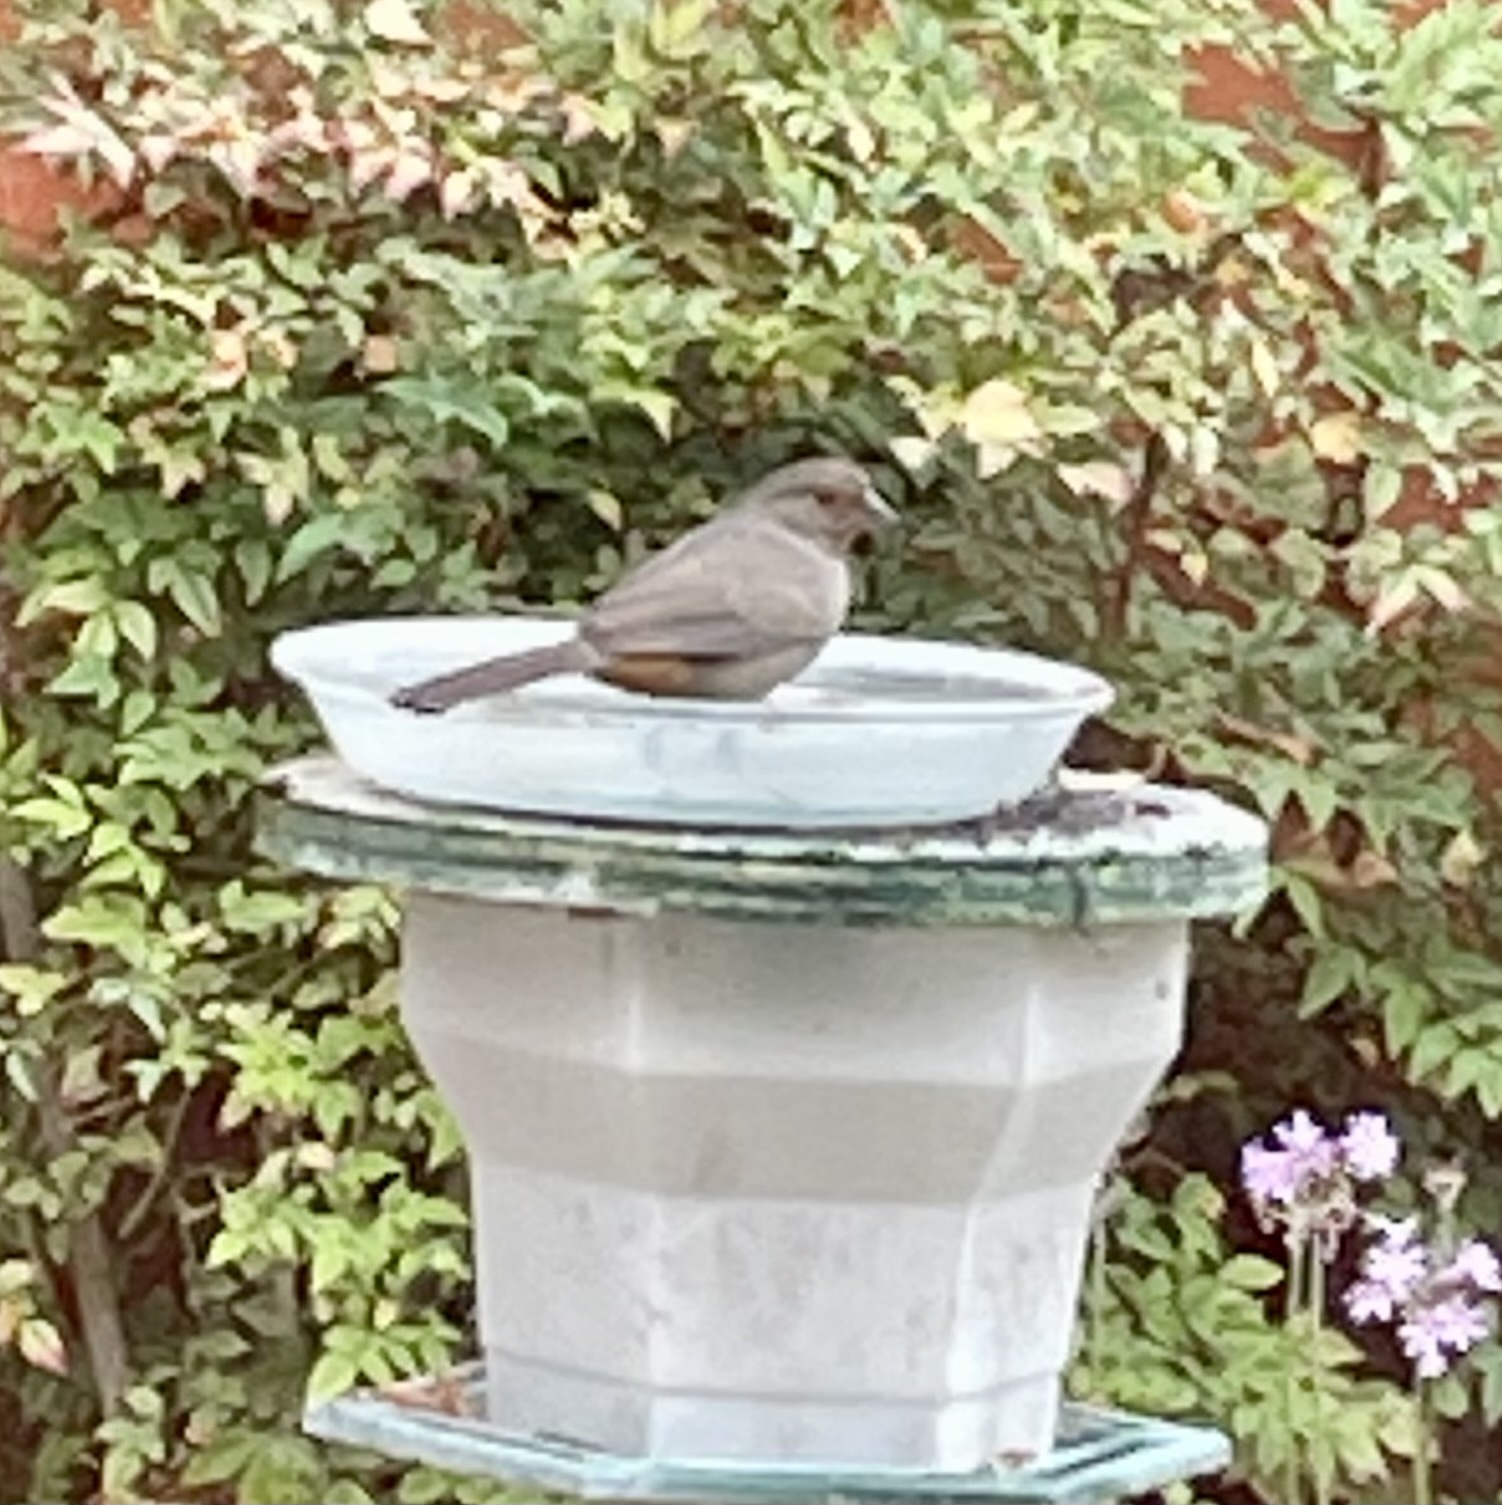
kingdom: Animalia
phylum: Chordata
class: Aves
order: Passeriformes
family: Passerellidae
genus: Melozone
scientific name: Melozone crissalis
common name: California towhee
